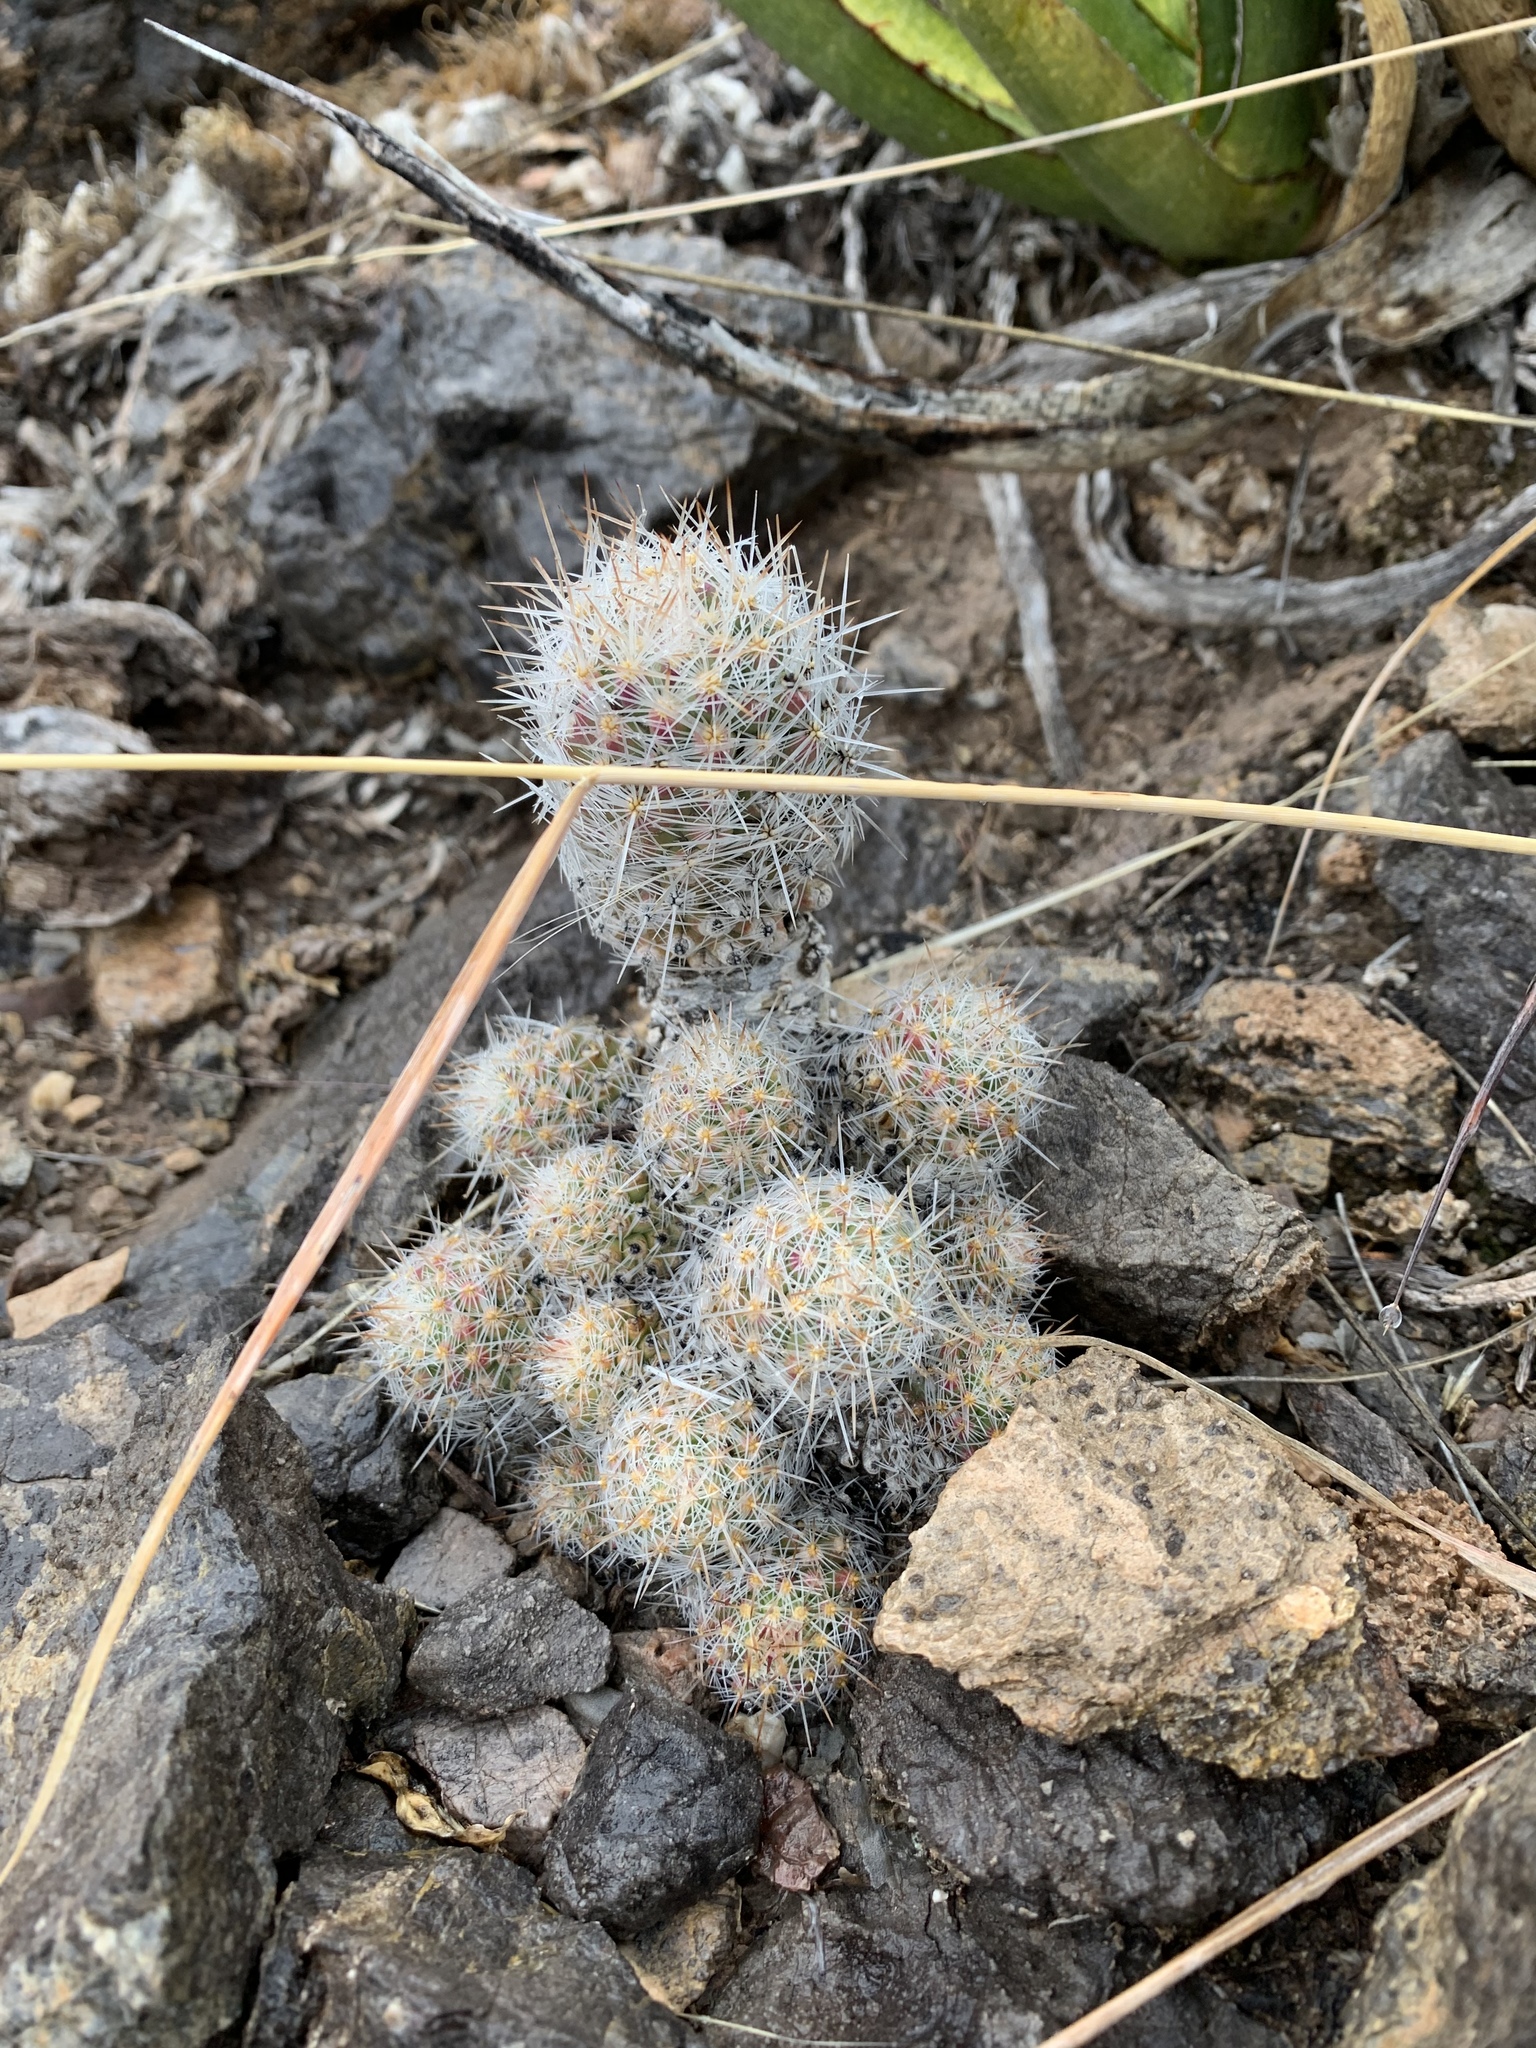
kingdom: Plantae
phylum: Tracheophyta
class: Magnoliopsida
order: Caryophyllales
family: Cactaceae
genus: Pelecyphora
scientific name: Pelecyphora tuberculosa
